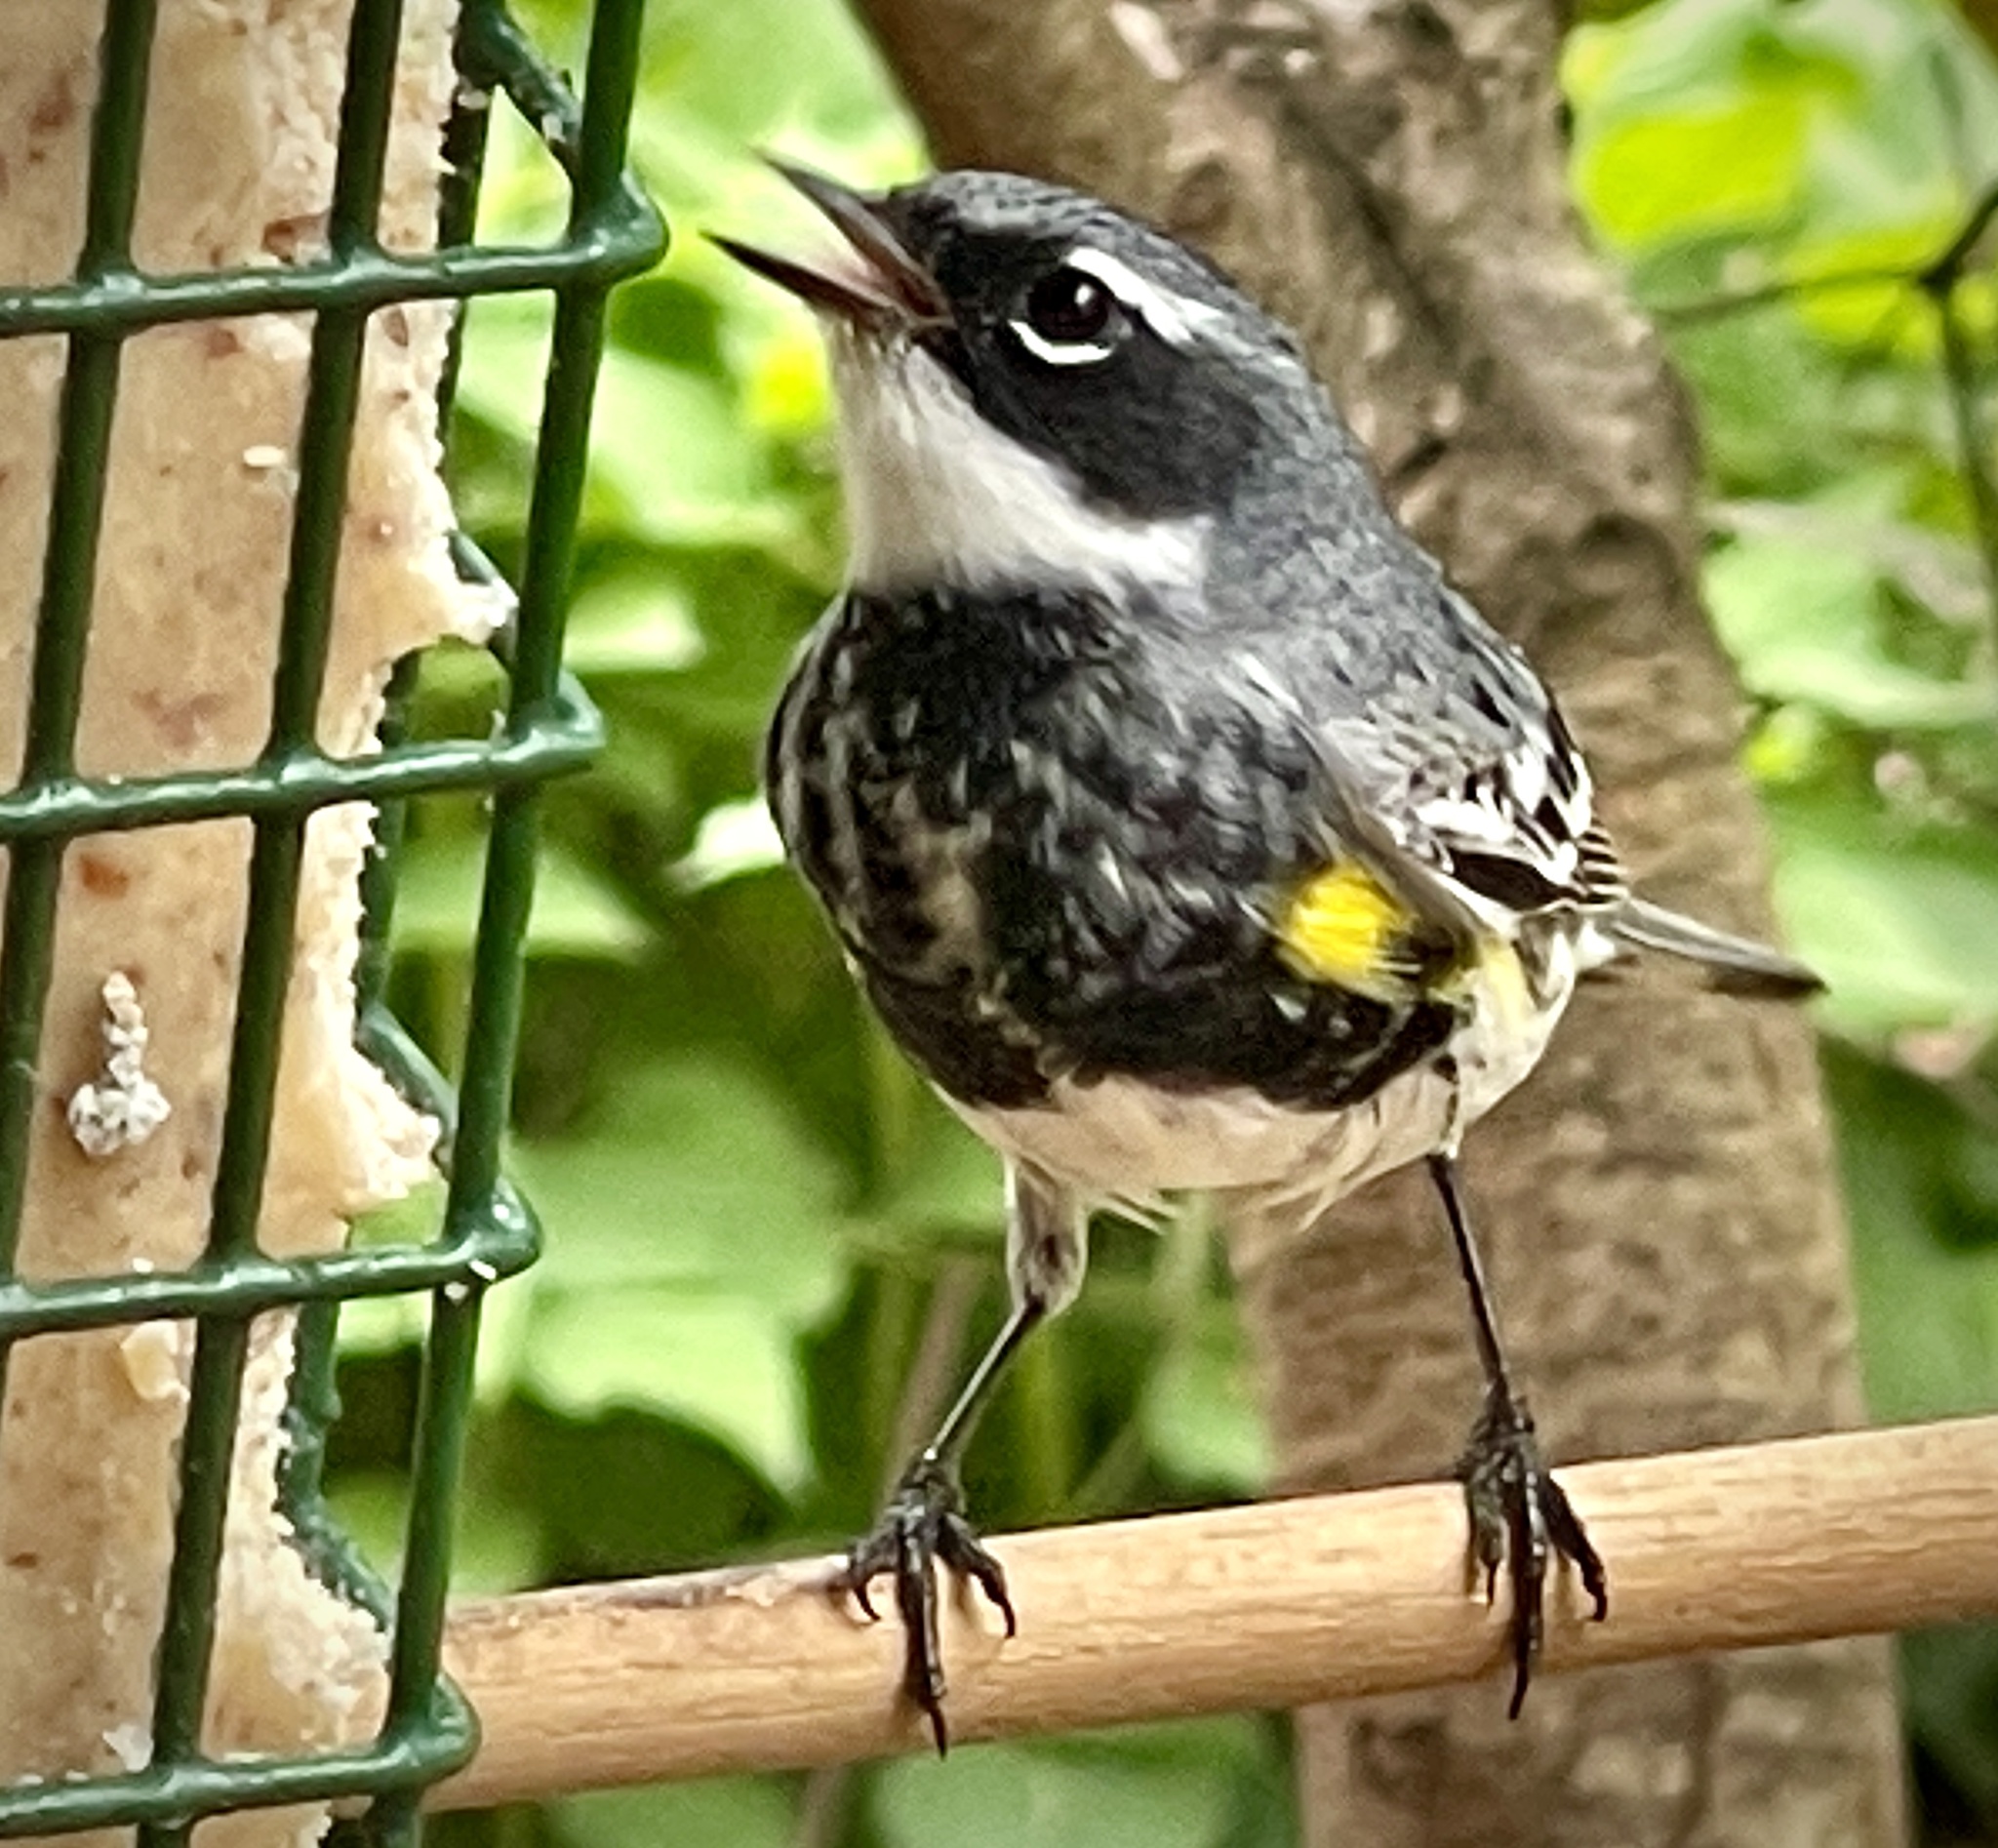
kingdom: Animalia
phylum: Chordata
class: Aves
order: Passeriformes
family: Parulidae
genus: Setophaga
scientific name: Setophaga coronata
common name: Myrtle warbler
